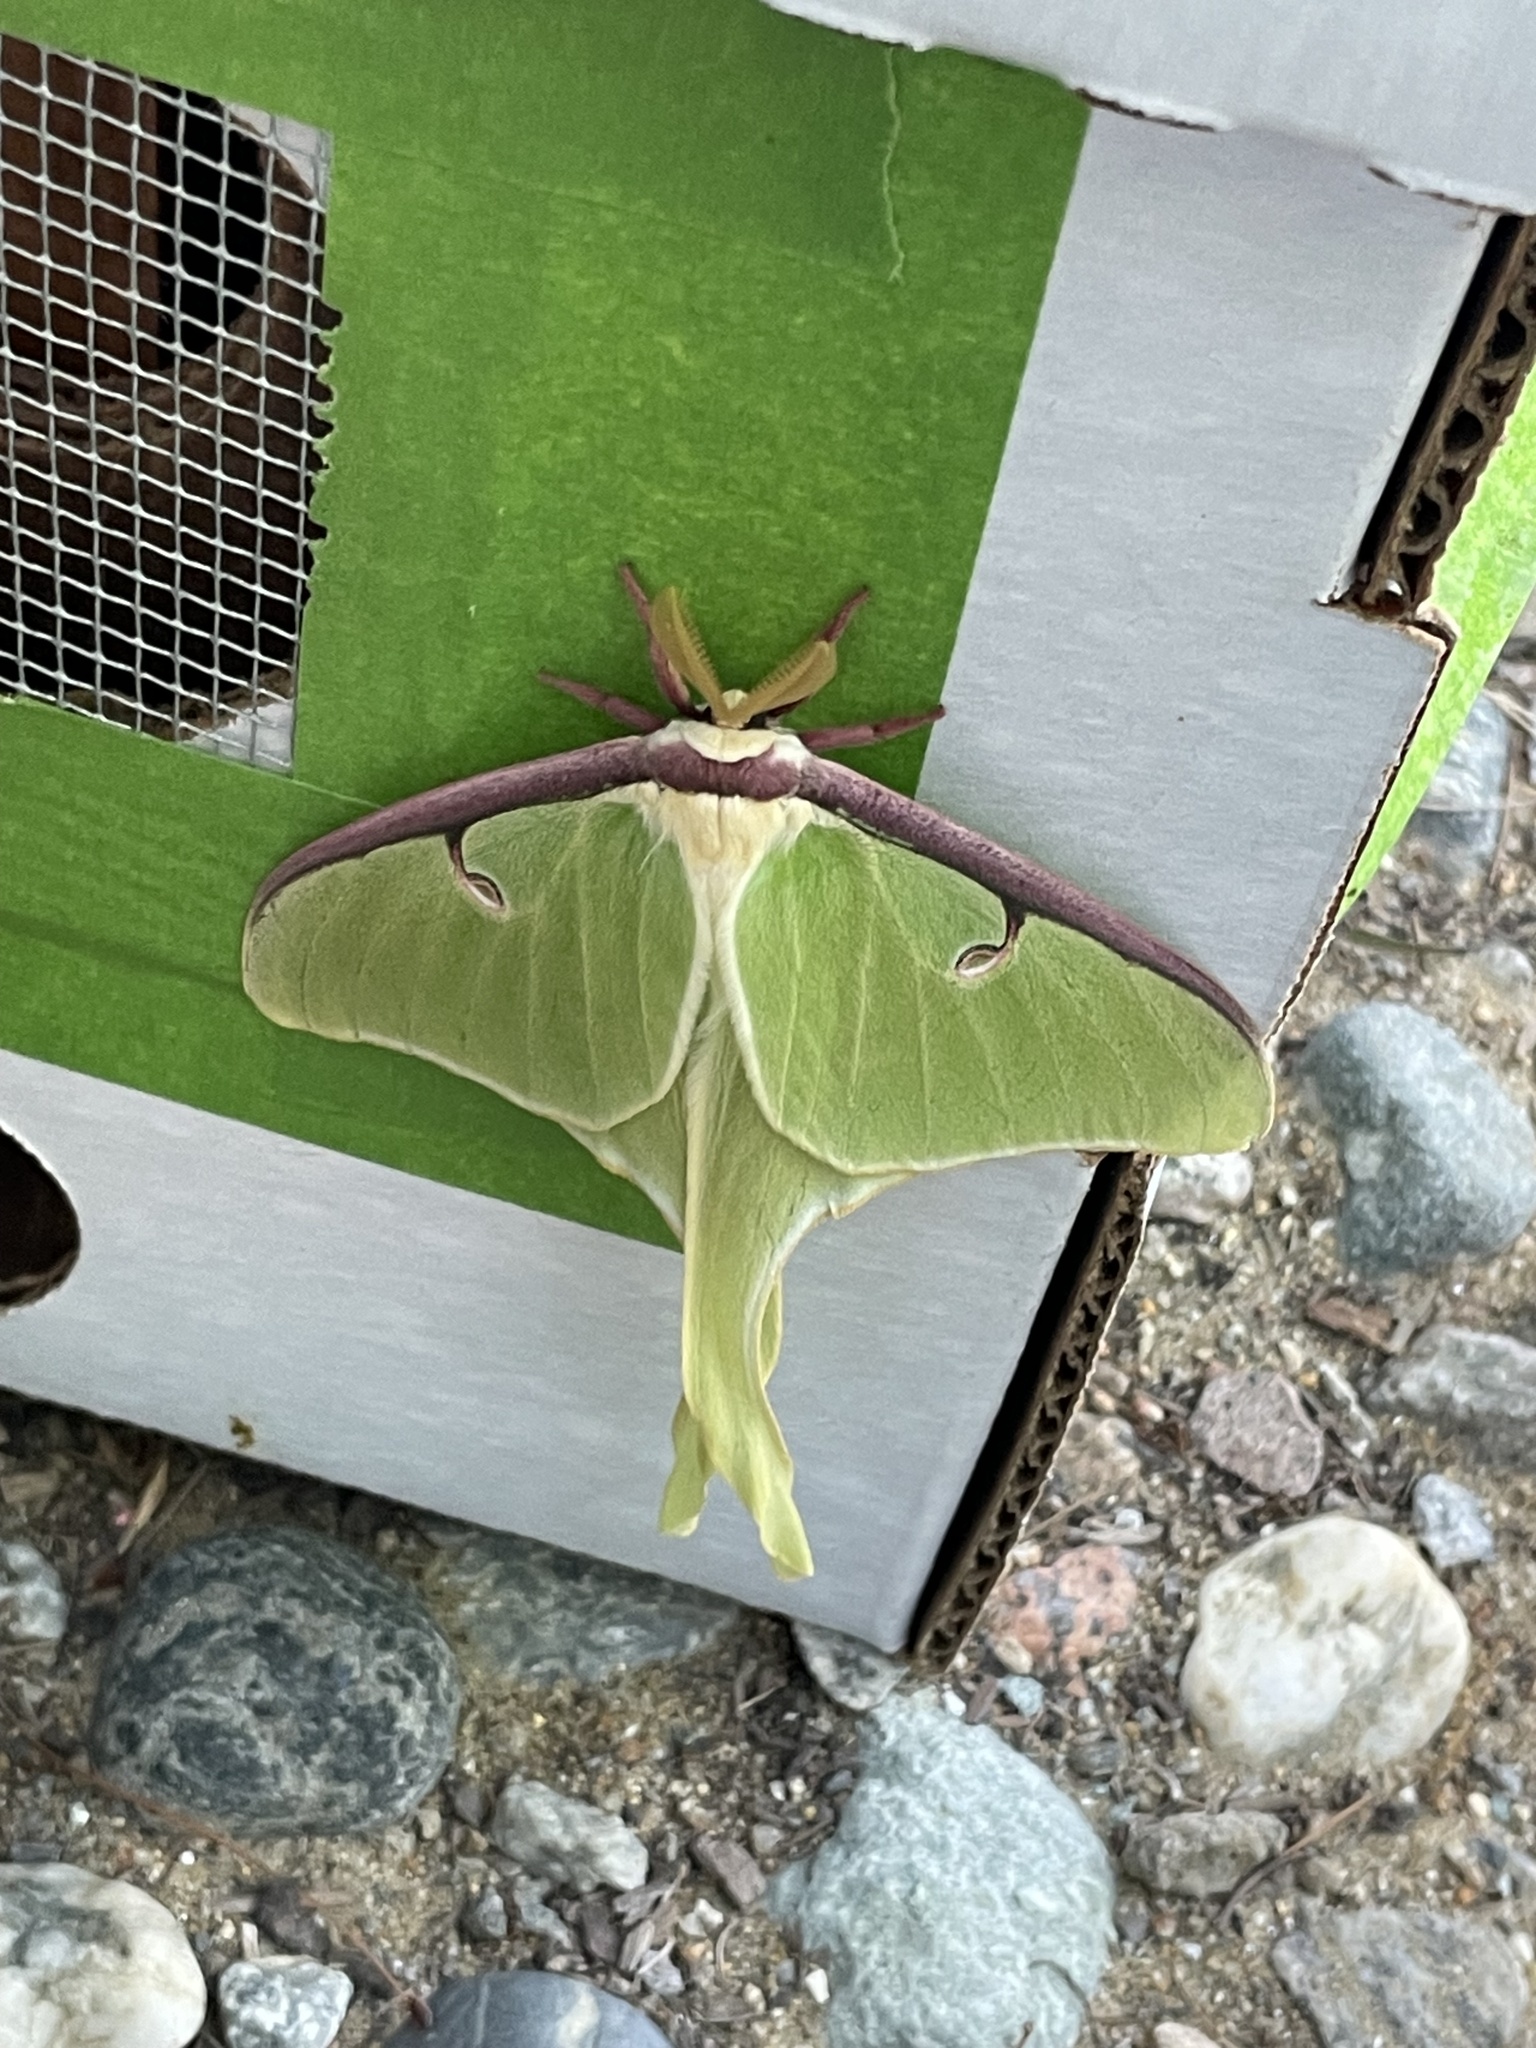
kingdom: Animalia
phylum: Arthropoda
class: Insecta
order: Lepidoptera
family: Saturniidae
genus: Actias
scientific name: Actias luna
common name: Luna moth
